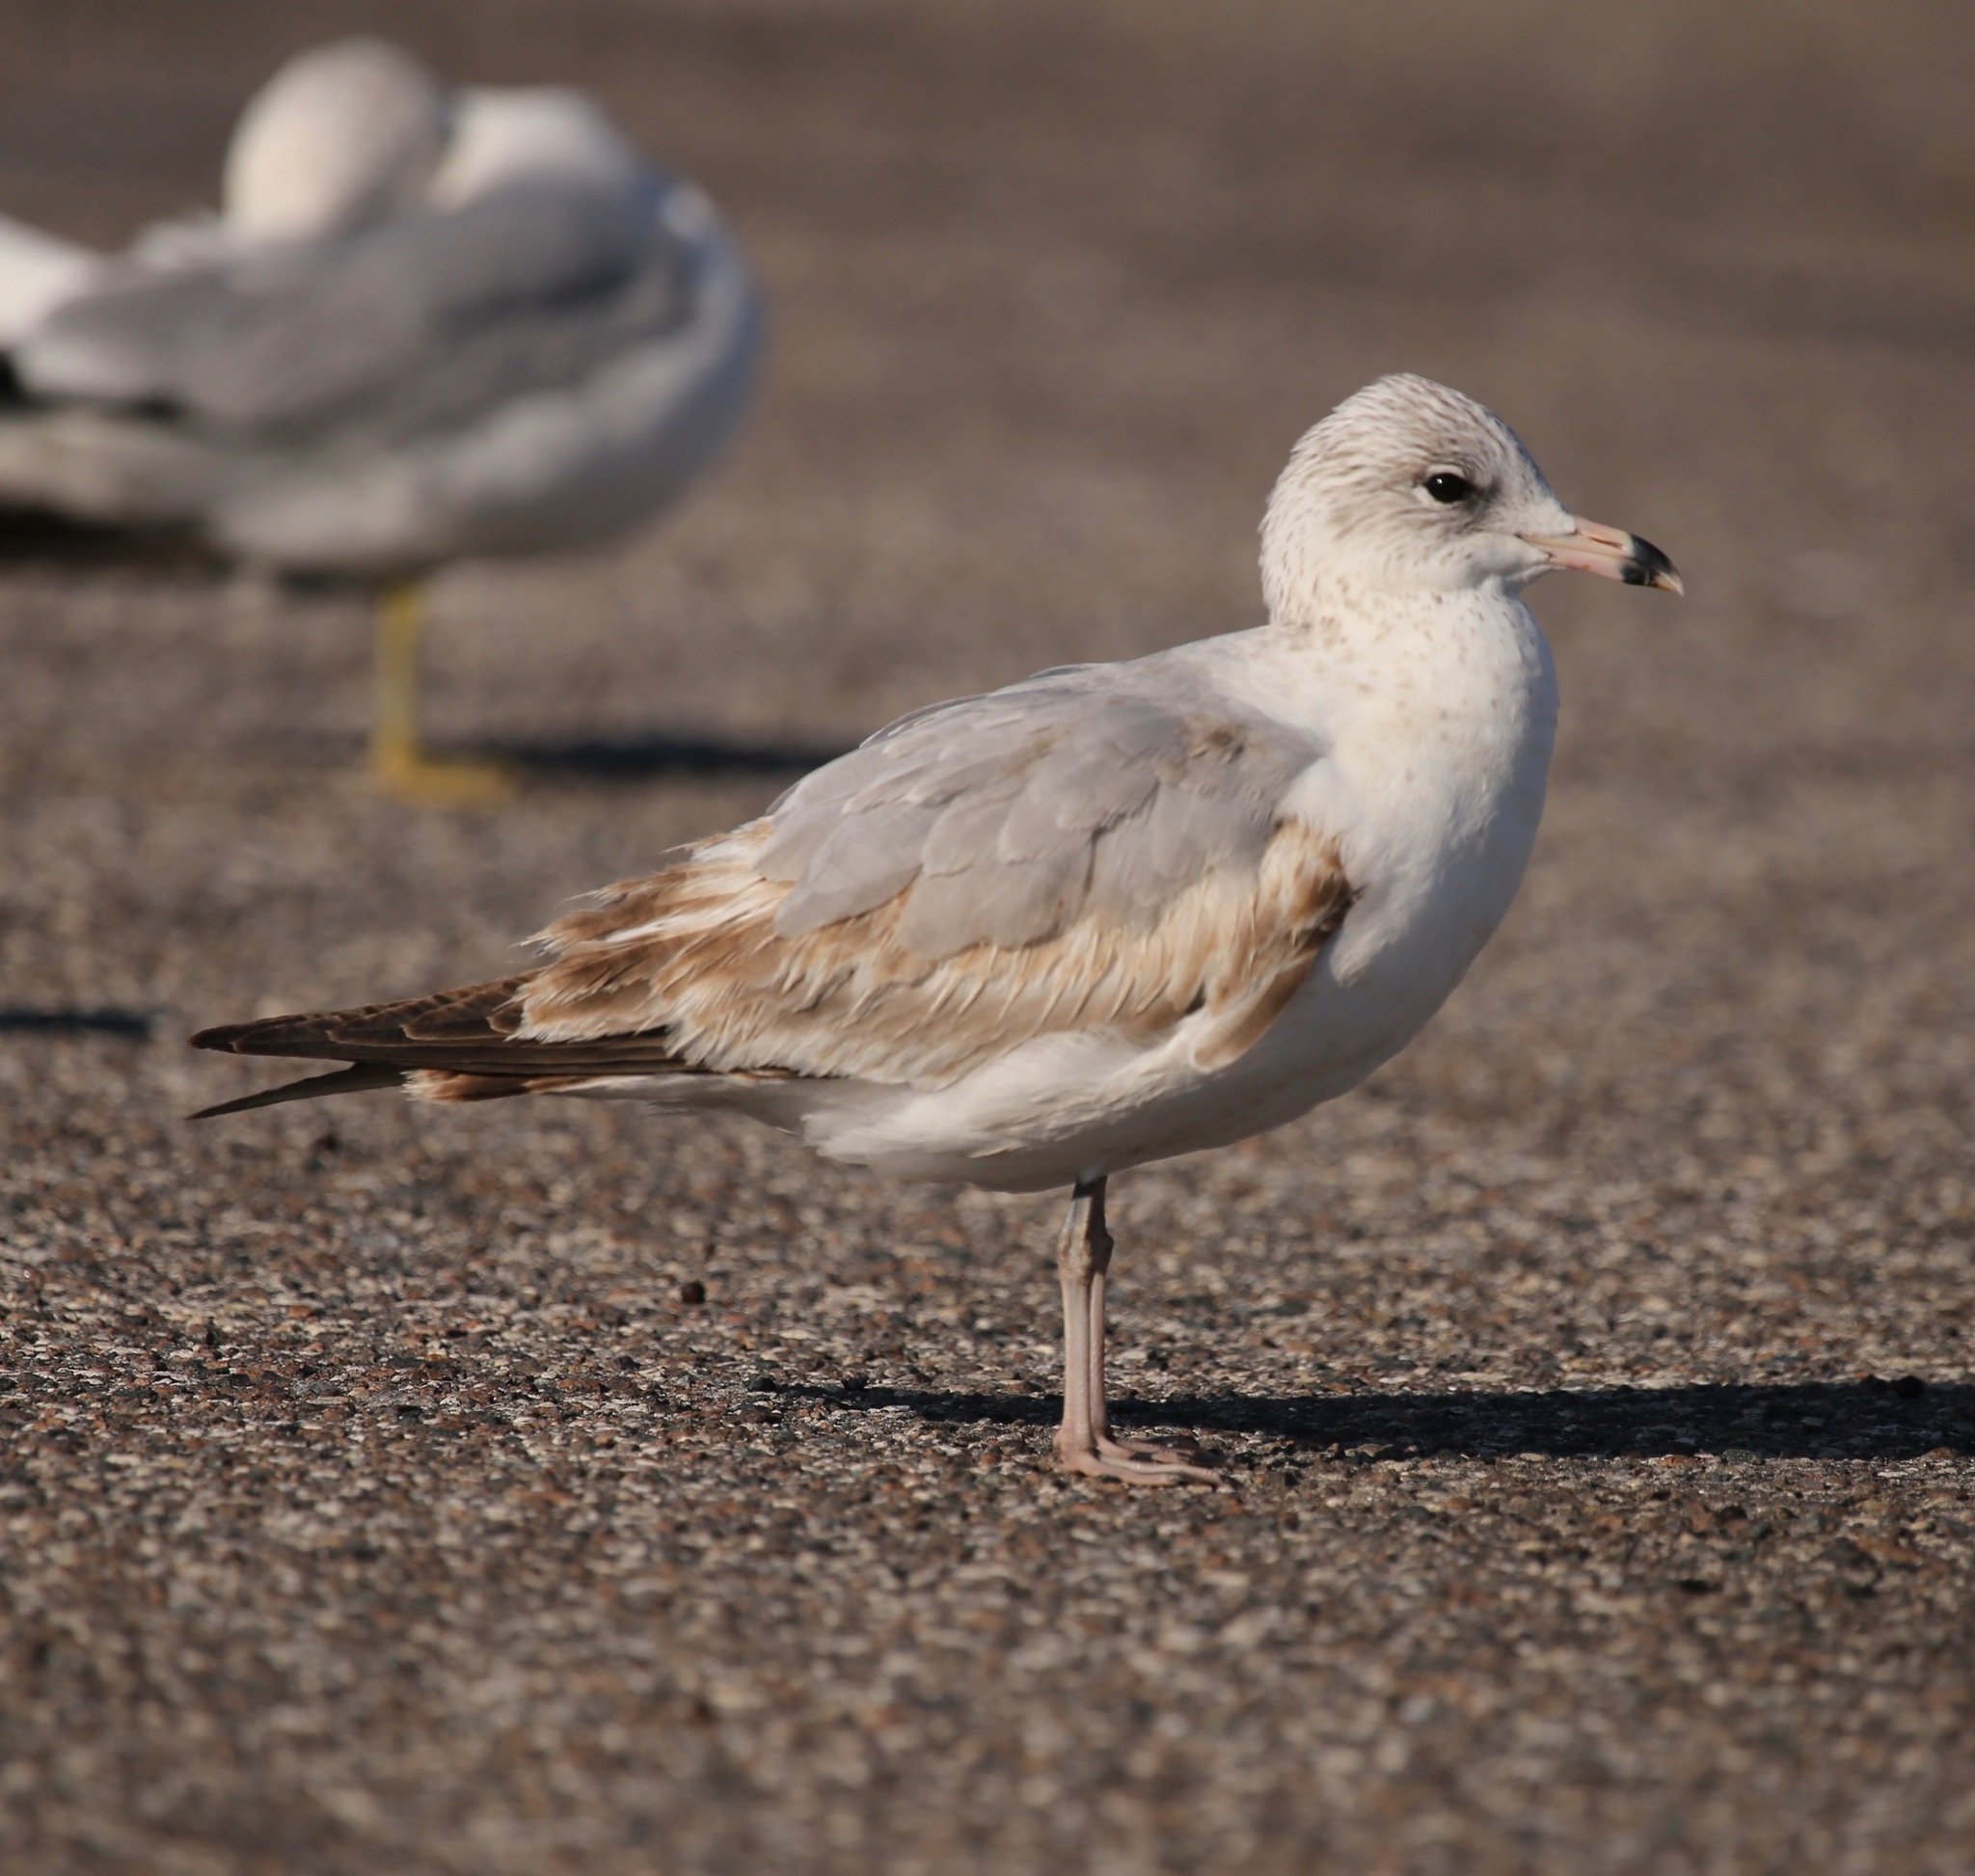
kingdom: Animalia
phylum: Chordata
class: Aves
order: Charadriiformes
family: Laridae
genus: Larus
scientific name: Larus delawarensis
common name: Ring-billed gull
